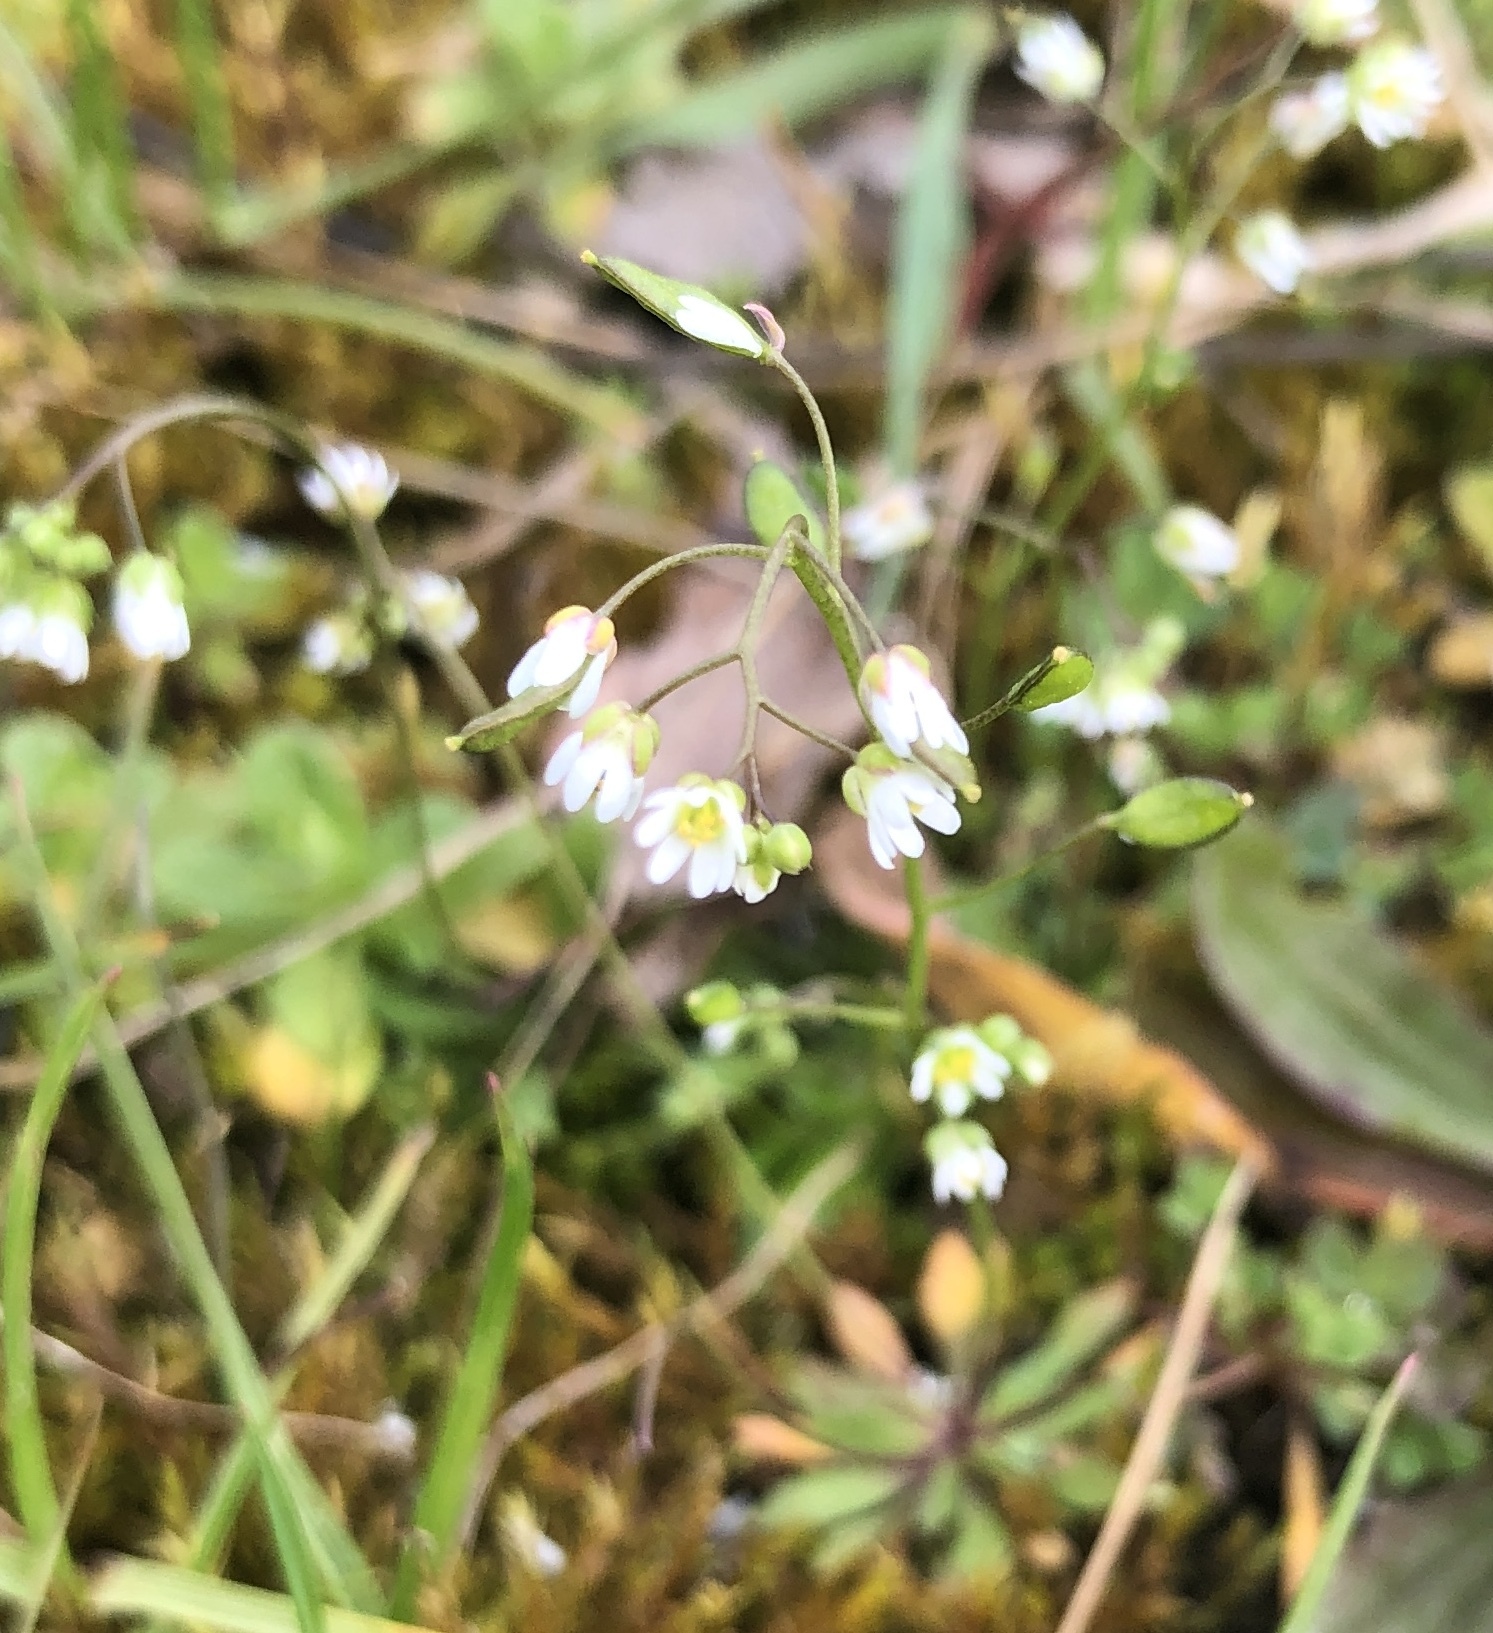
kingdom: Plantae
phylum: Tracheophyta
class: Magnoliopsida
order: Brassicales
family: Brassicaceae
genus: Draba
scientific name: Draba verna
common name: Spring draba
